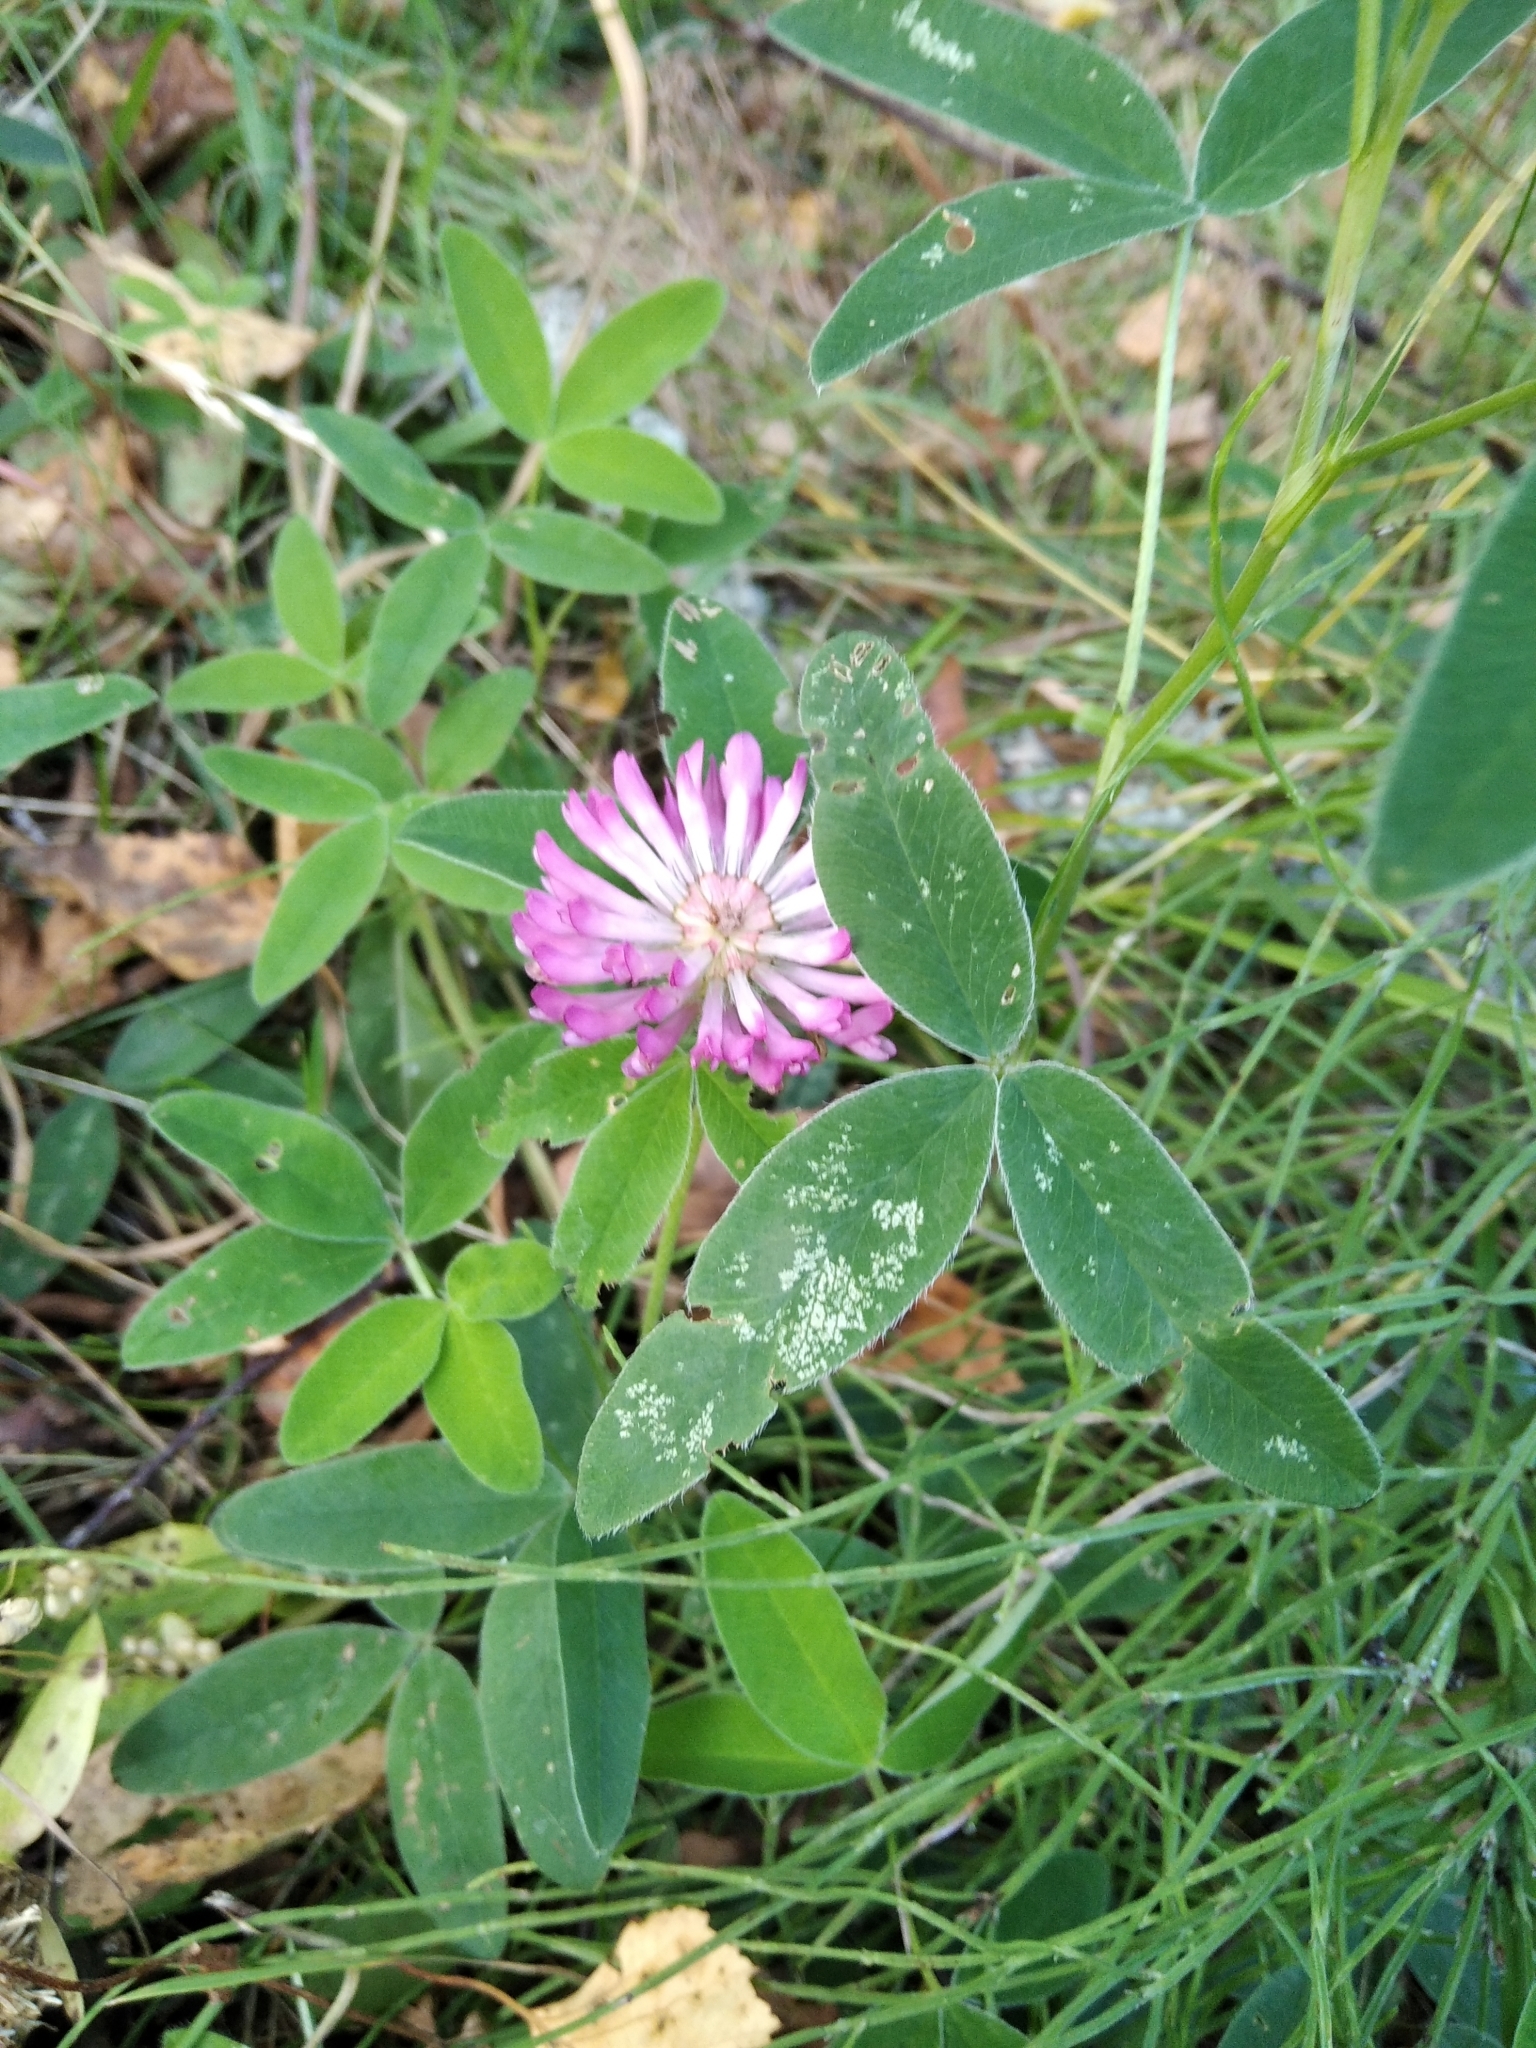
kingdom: Plantae
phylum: Tracheophyta
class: Magnoliopsida
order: Fabales
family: Fabaceae
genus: Trifolium
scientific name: Trifolium medium
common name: Zigzag clover
